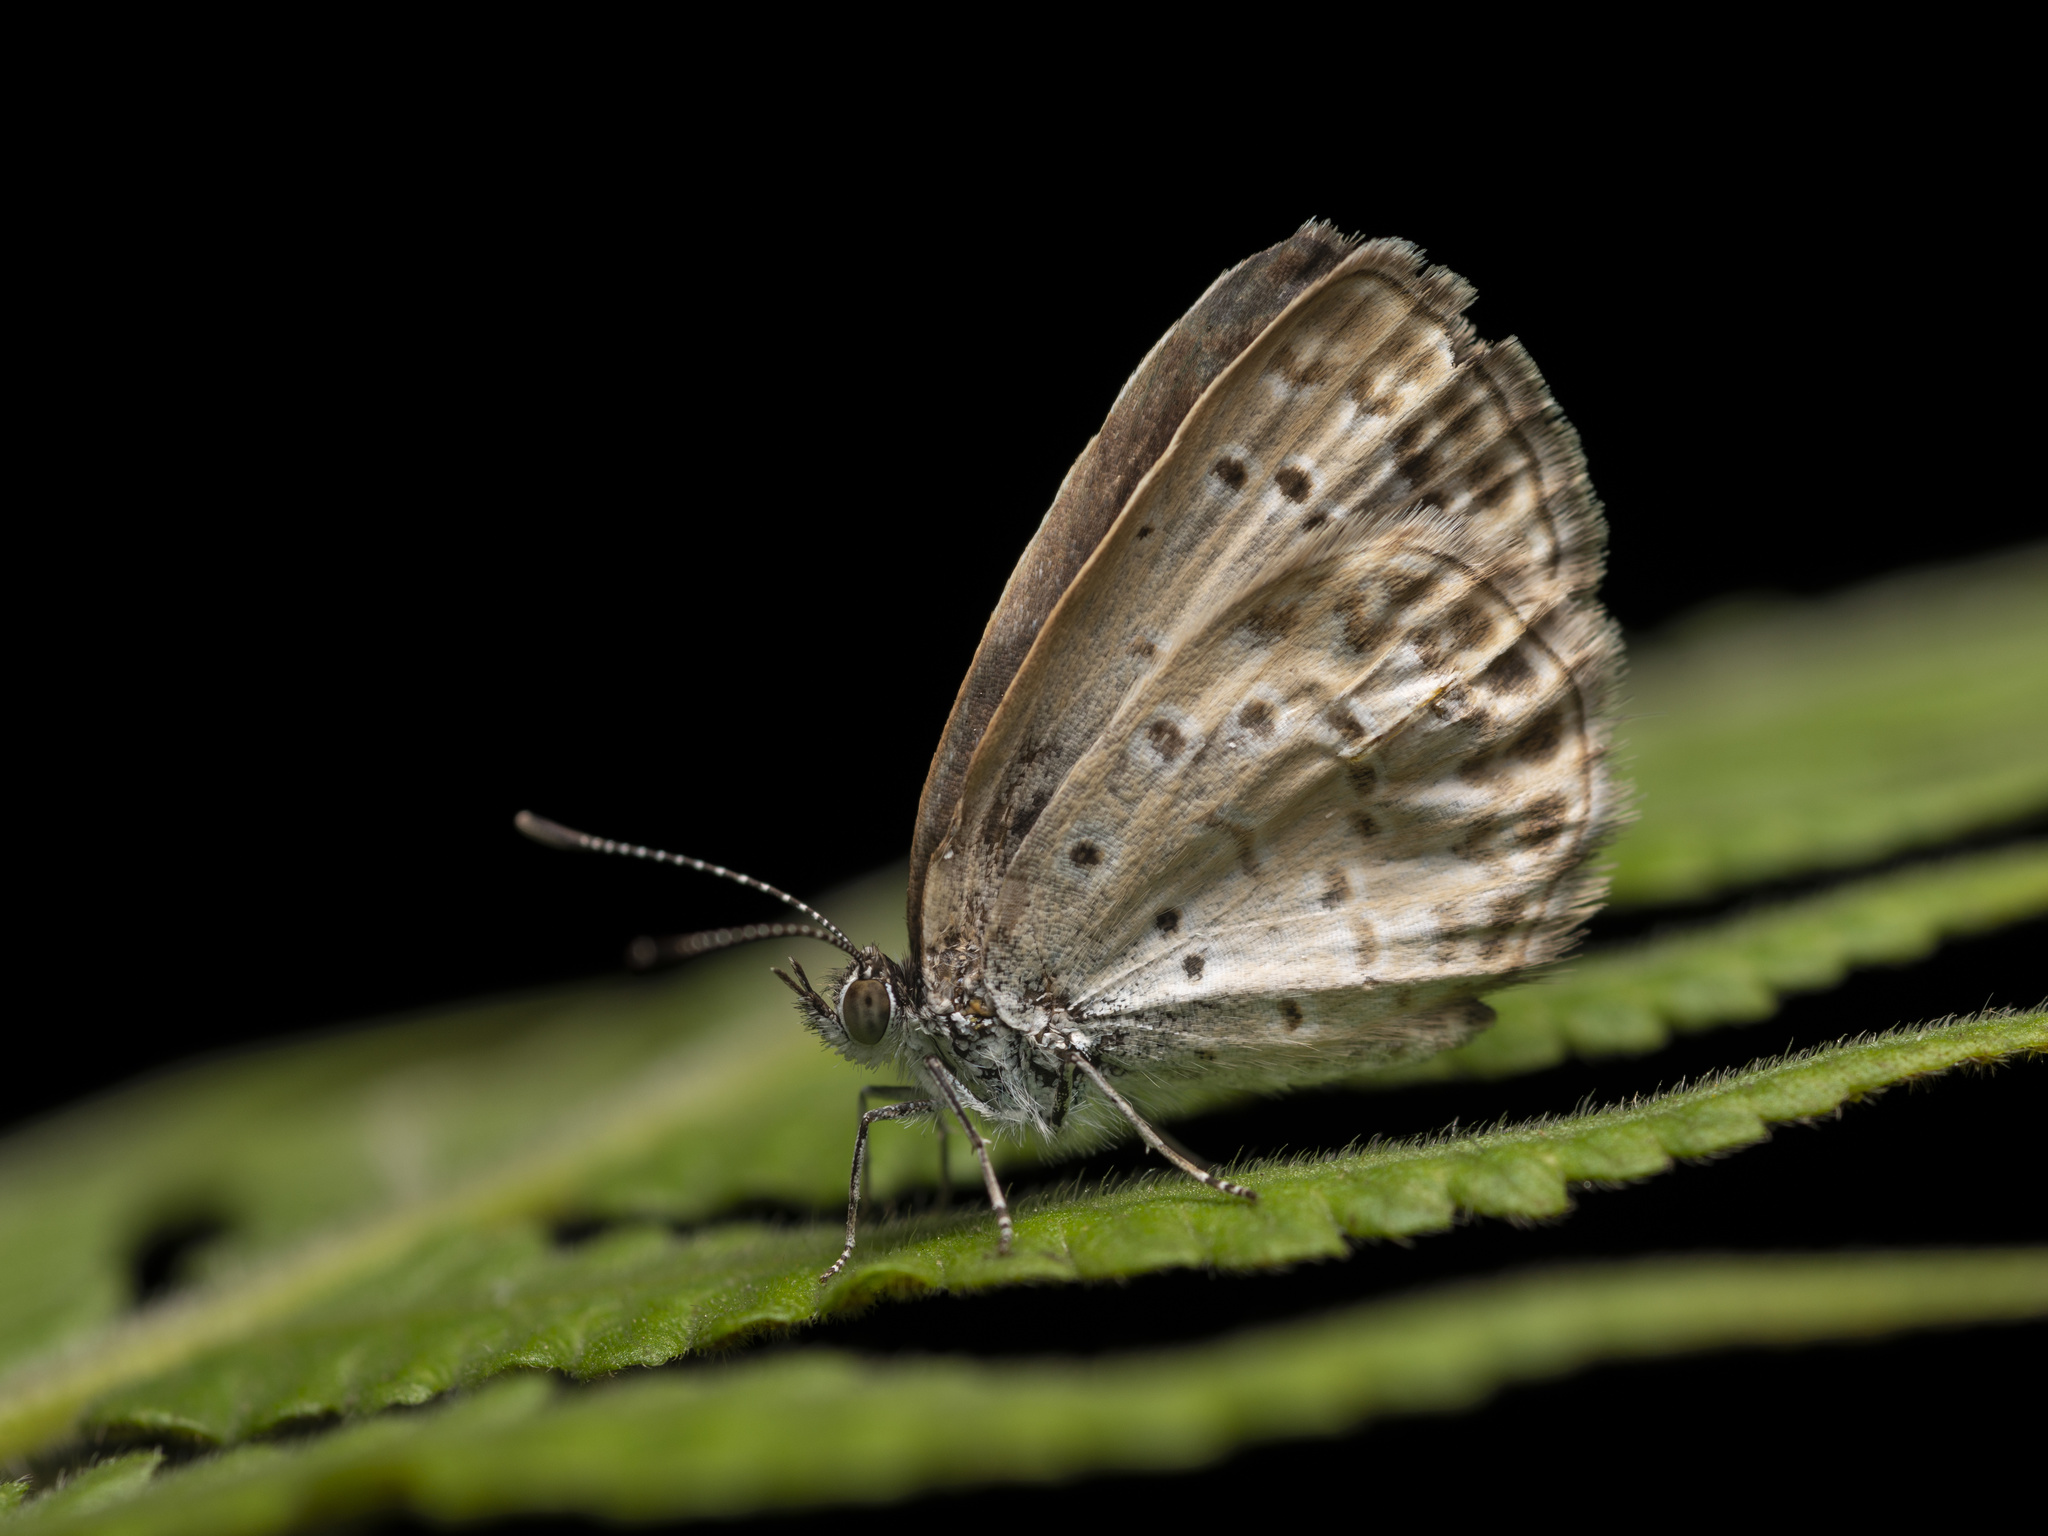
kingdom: Animalia
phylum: Arthropoda
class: Insecta
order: Lepidoptera
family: Lycaenidae
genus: Pseudozizeeria
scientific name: Pseudozizeeria maha
